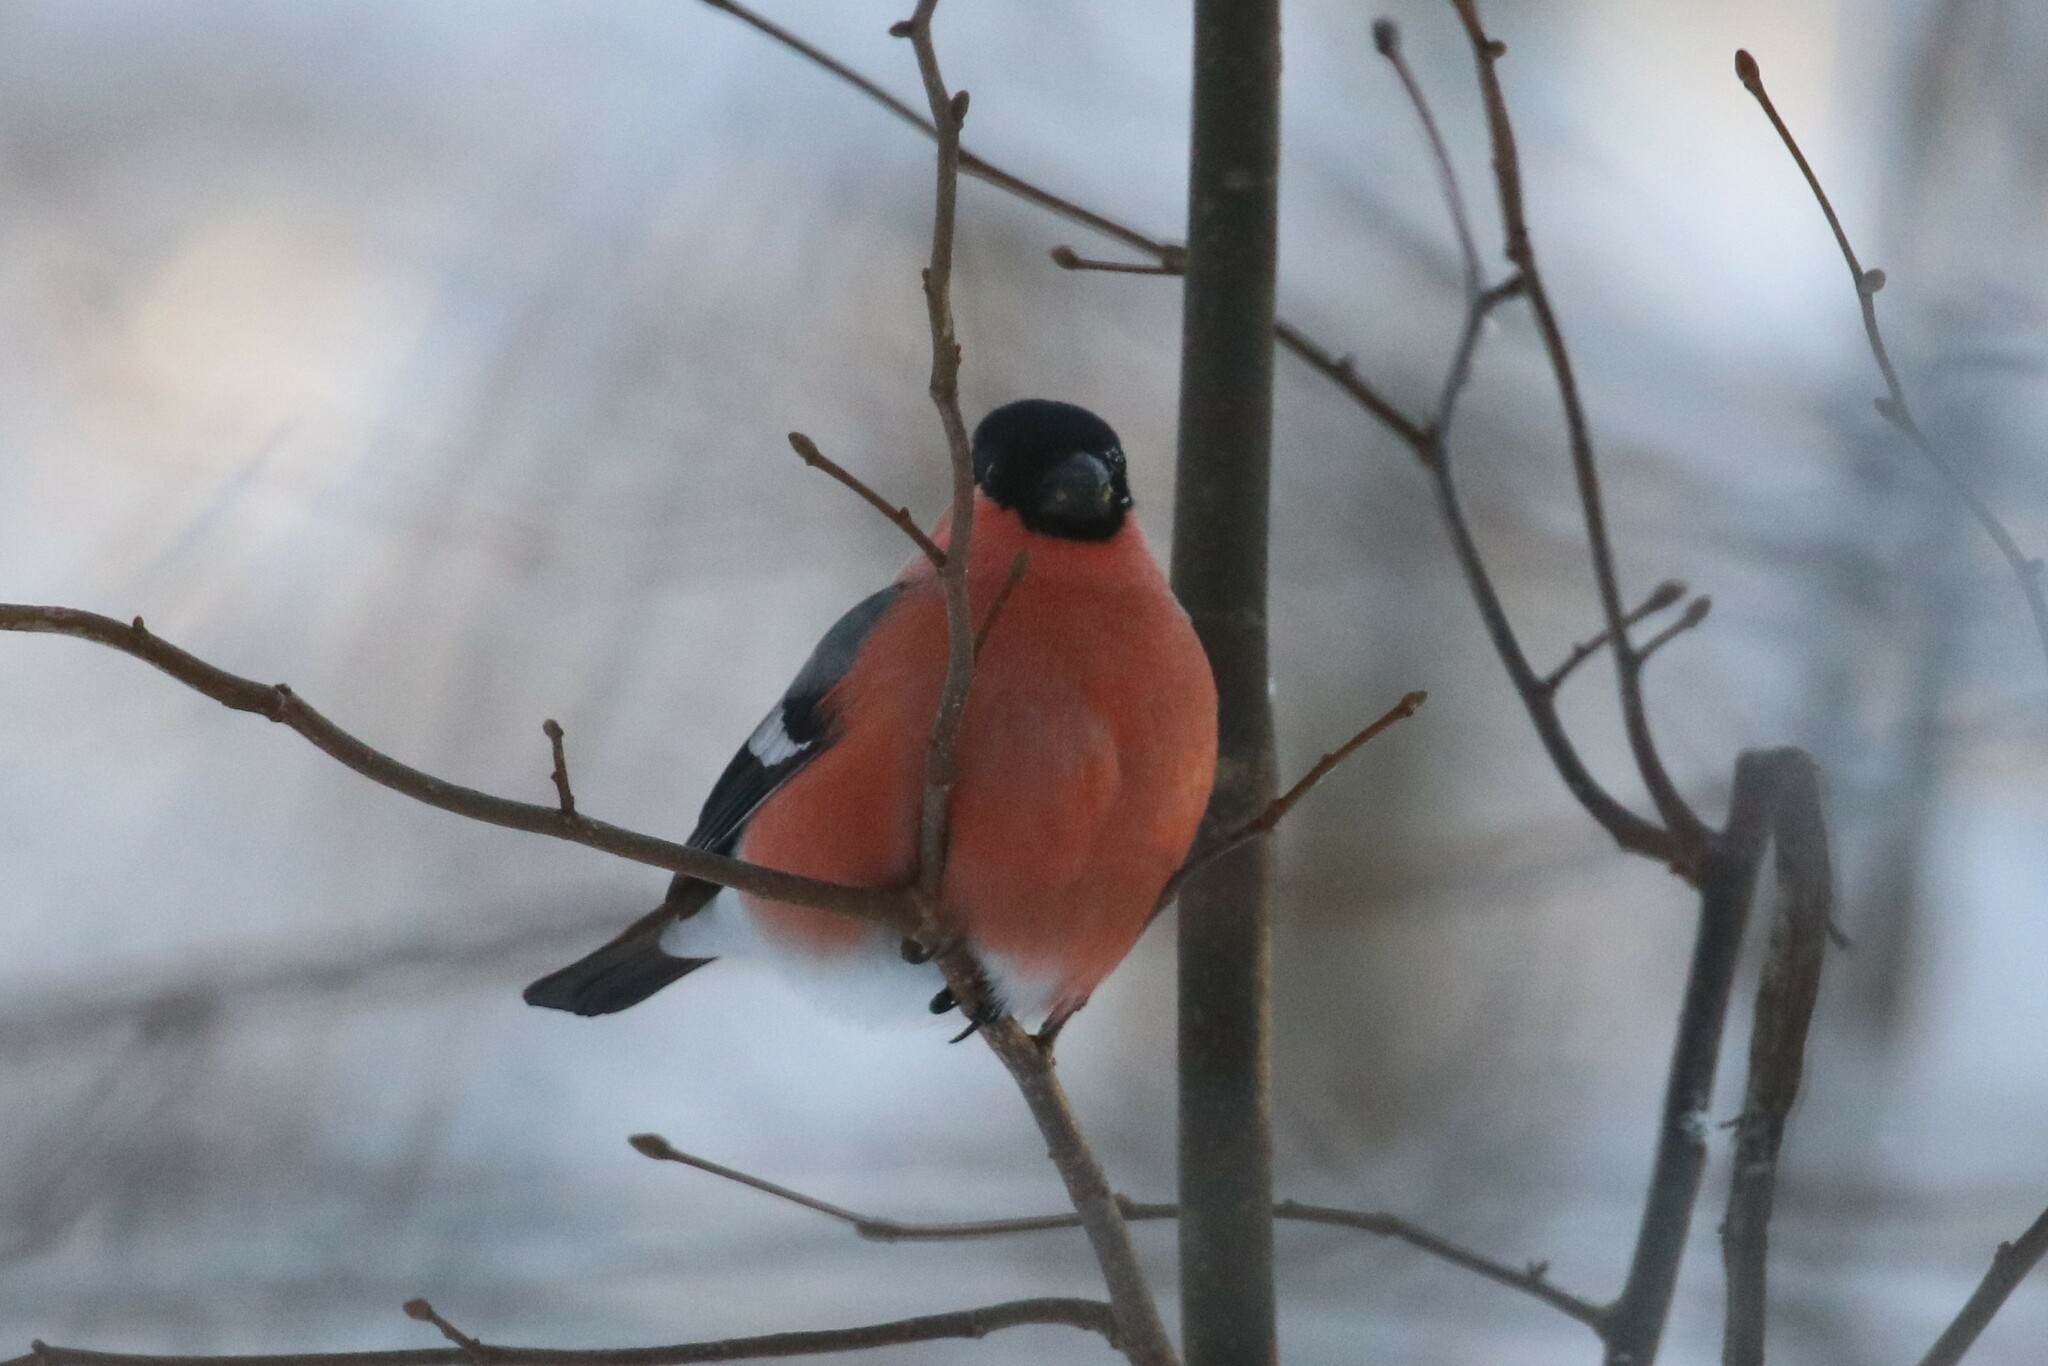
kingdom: Animalia
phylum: Chordata
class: Aves
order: Passeriformes
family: Fringillidae
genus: Pyrrhula
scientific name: Pyrrhula pyrrhula
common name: Eurasian bullfinch
